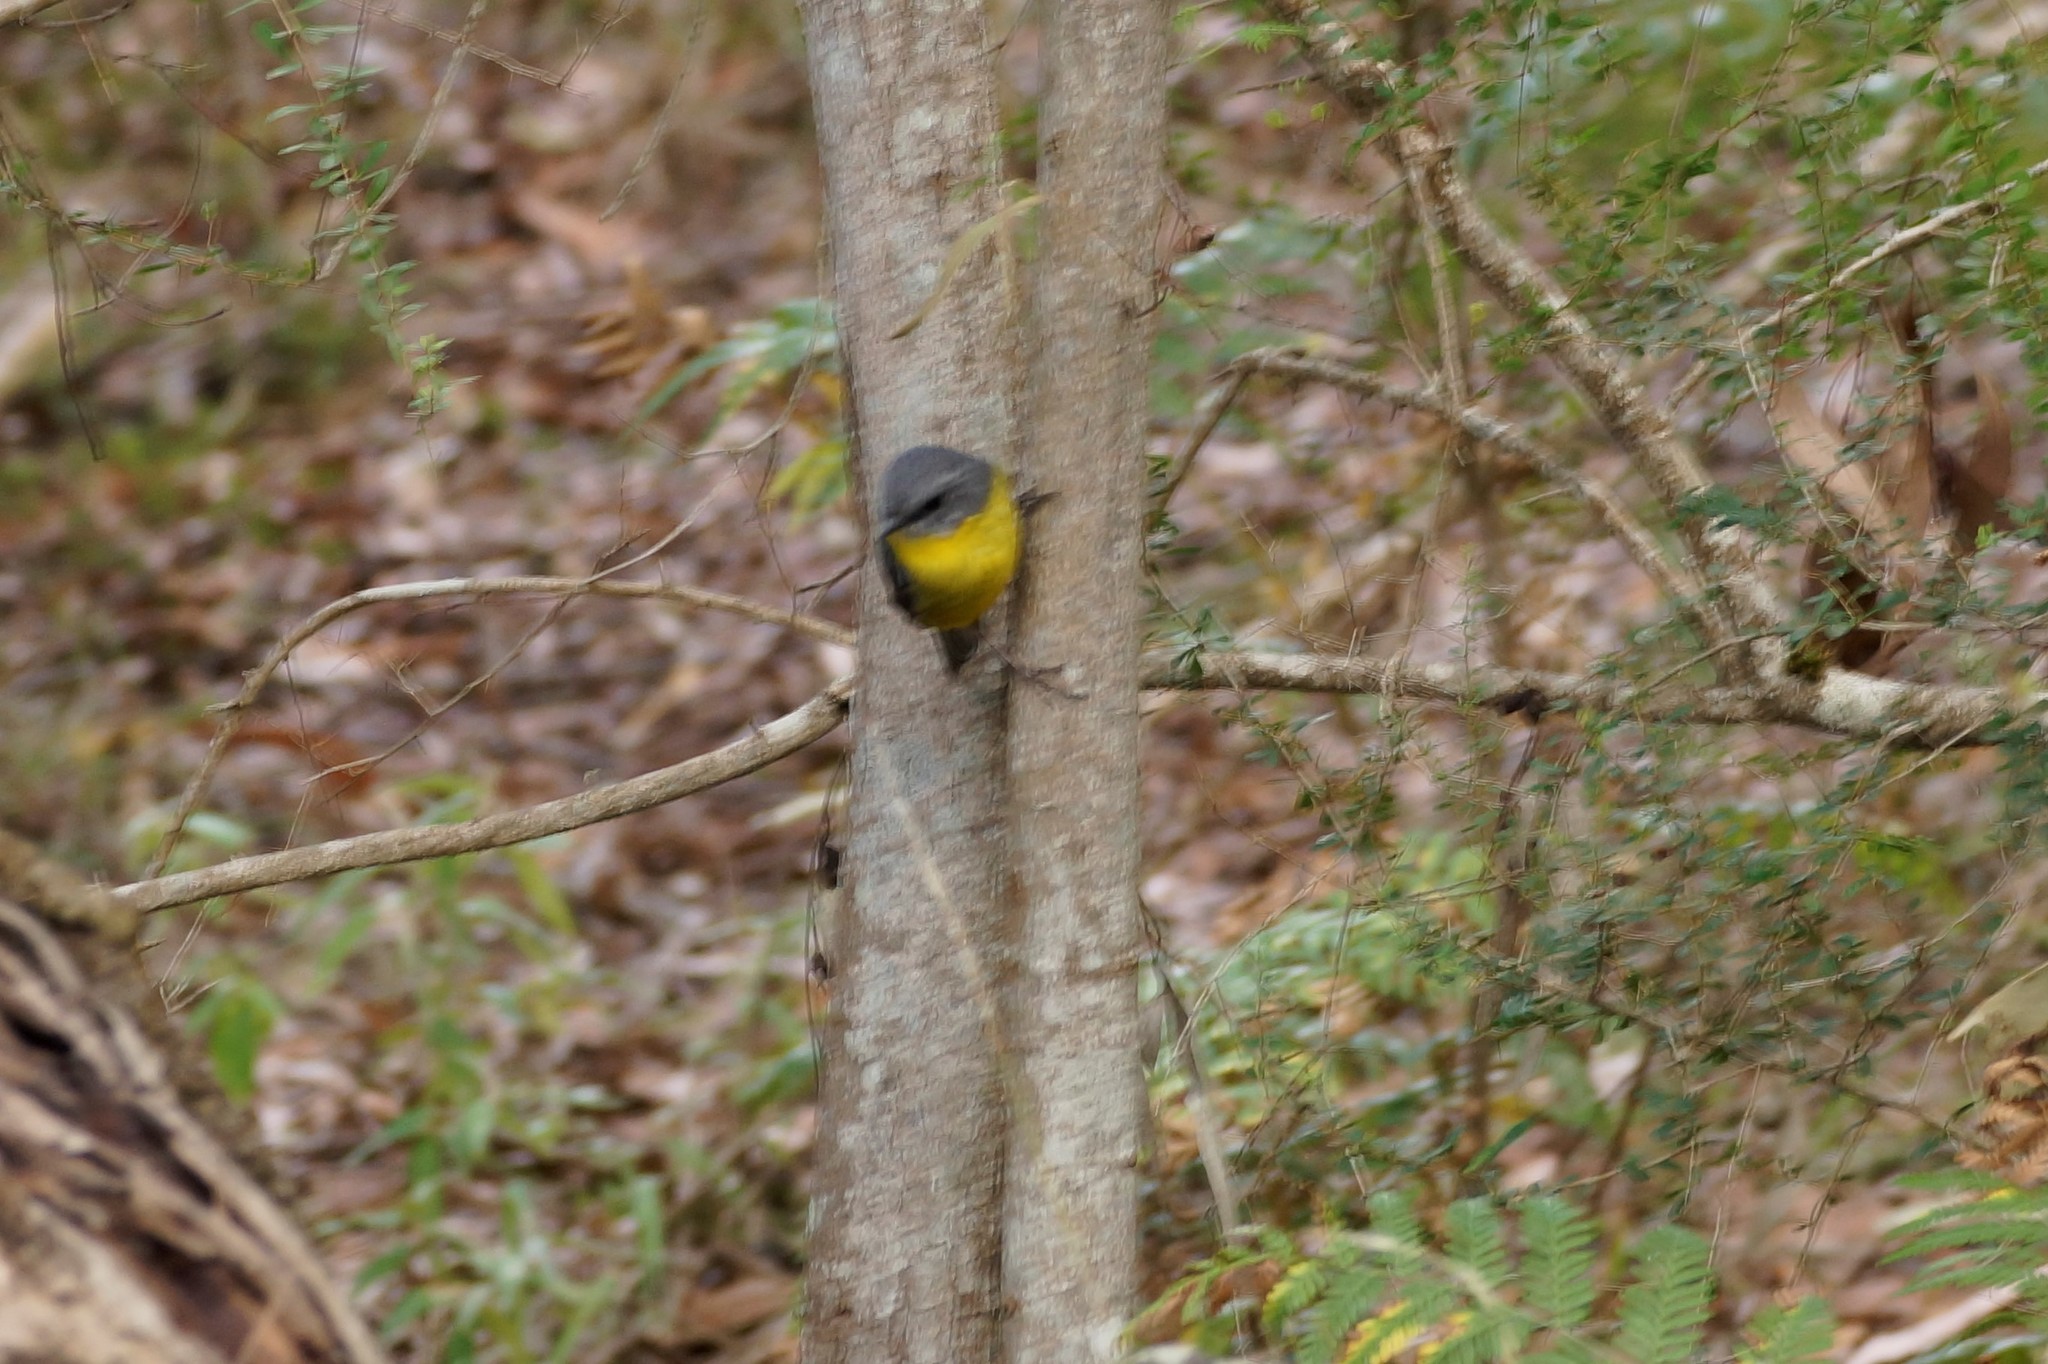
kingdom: Animalia
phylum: Chordata
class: Aves
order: Passeriformes
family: Petroicidae
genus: Eopsaltria
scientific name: Eopsaltria australis
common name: Eastern yellow robin
